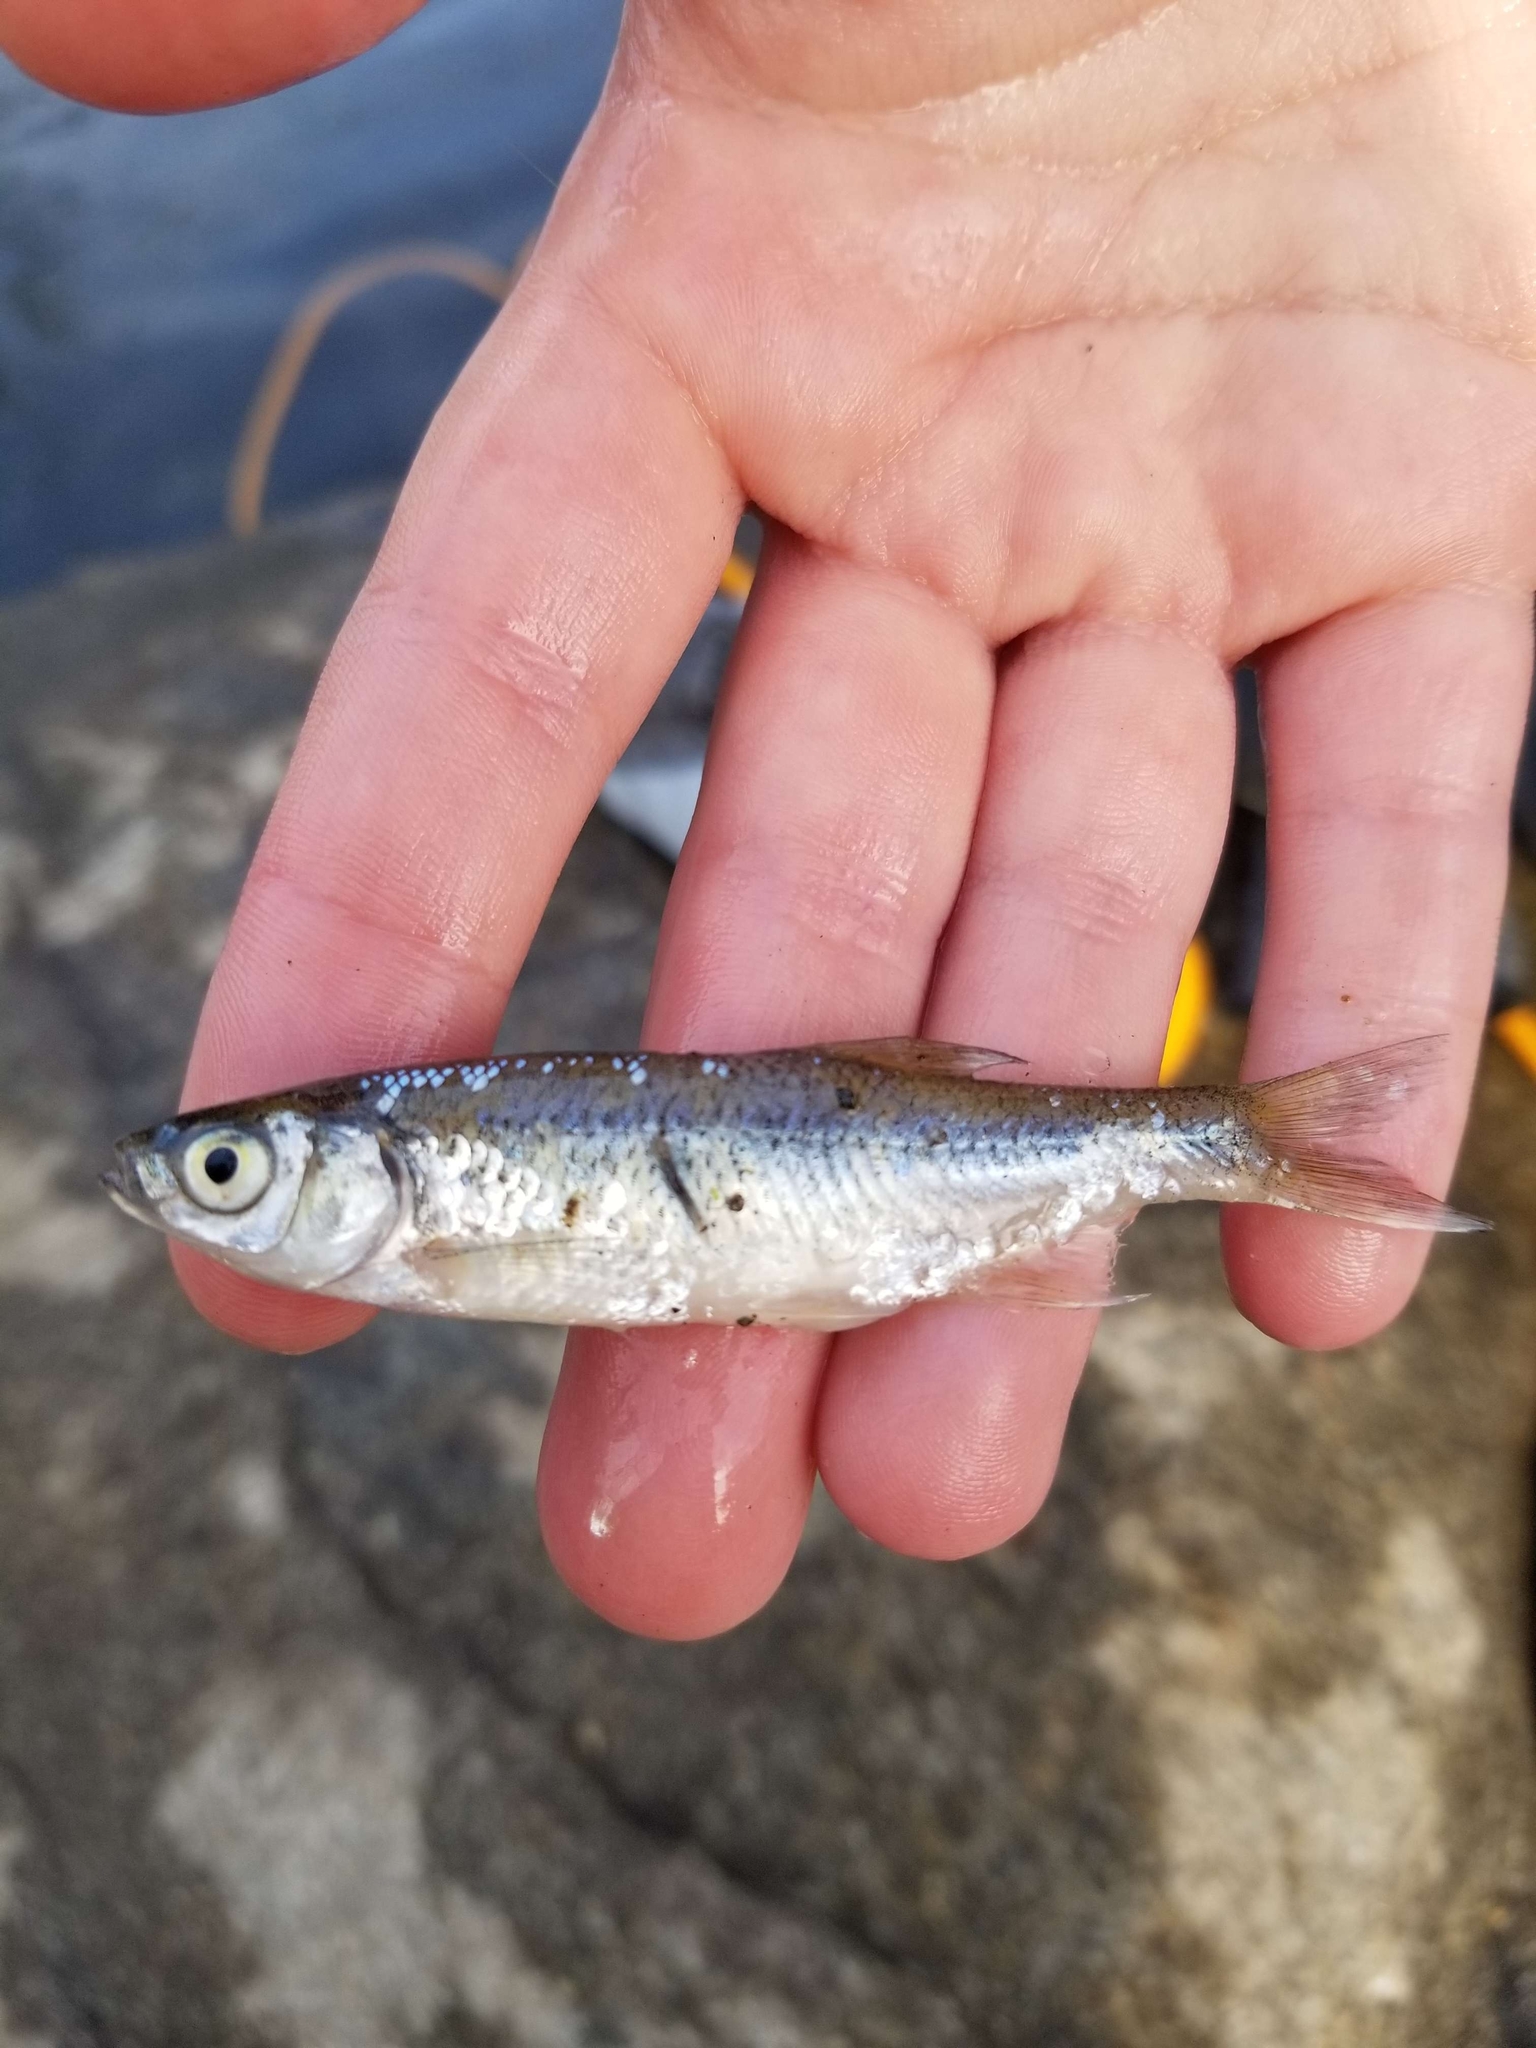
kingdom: Animalia
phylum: Chordata
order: Cypriniformes
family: Cyprinidae
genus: Notemigonus
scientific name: Notemigonus crysoleucas
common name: Golden shiner
